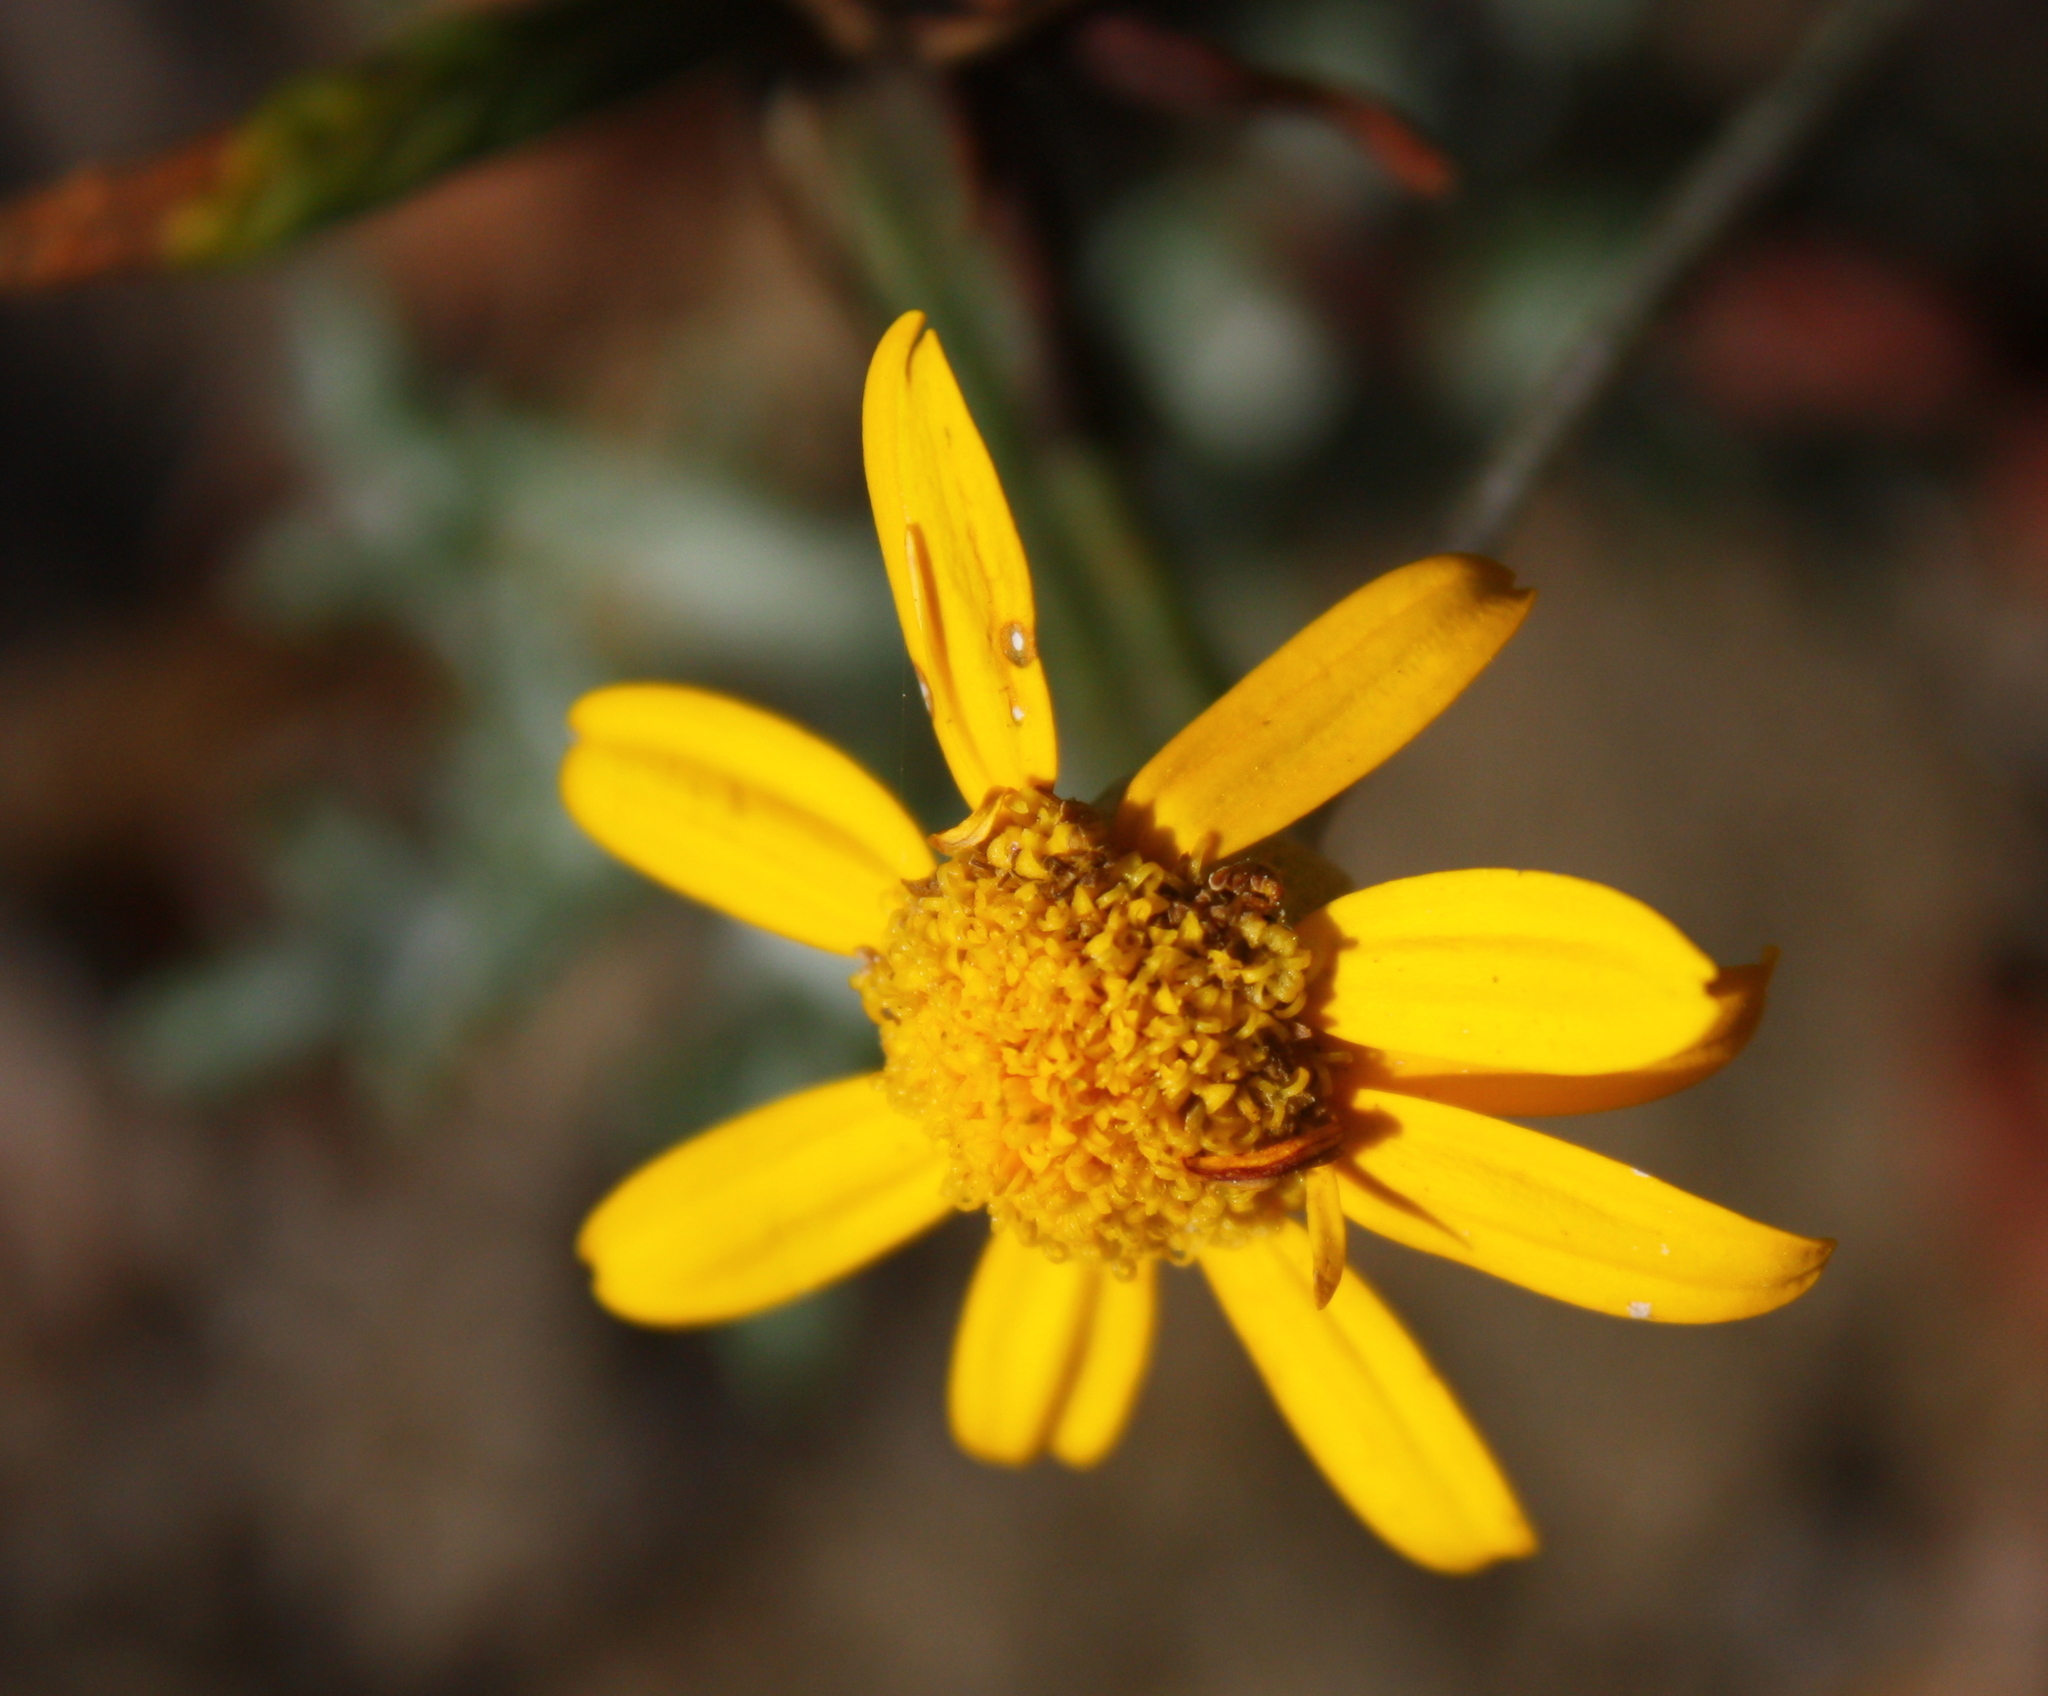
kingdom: Plantae
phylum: Tracheophyta
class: Magnoliopsida
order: Asterales
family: Asteraceae
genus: Eriophyllum
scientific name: Eriophyllum lanatum
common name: Common woolly-sunflower
